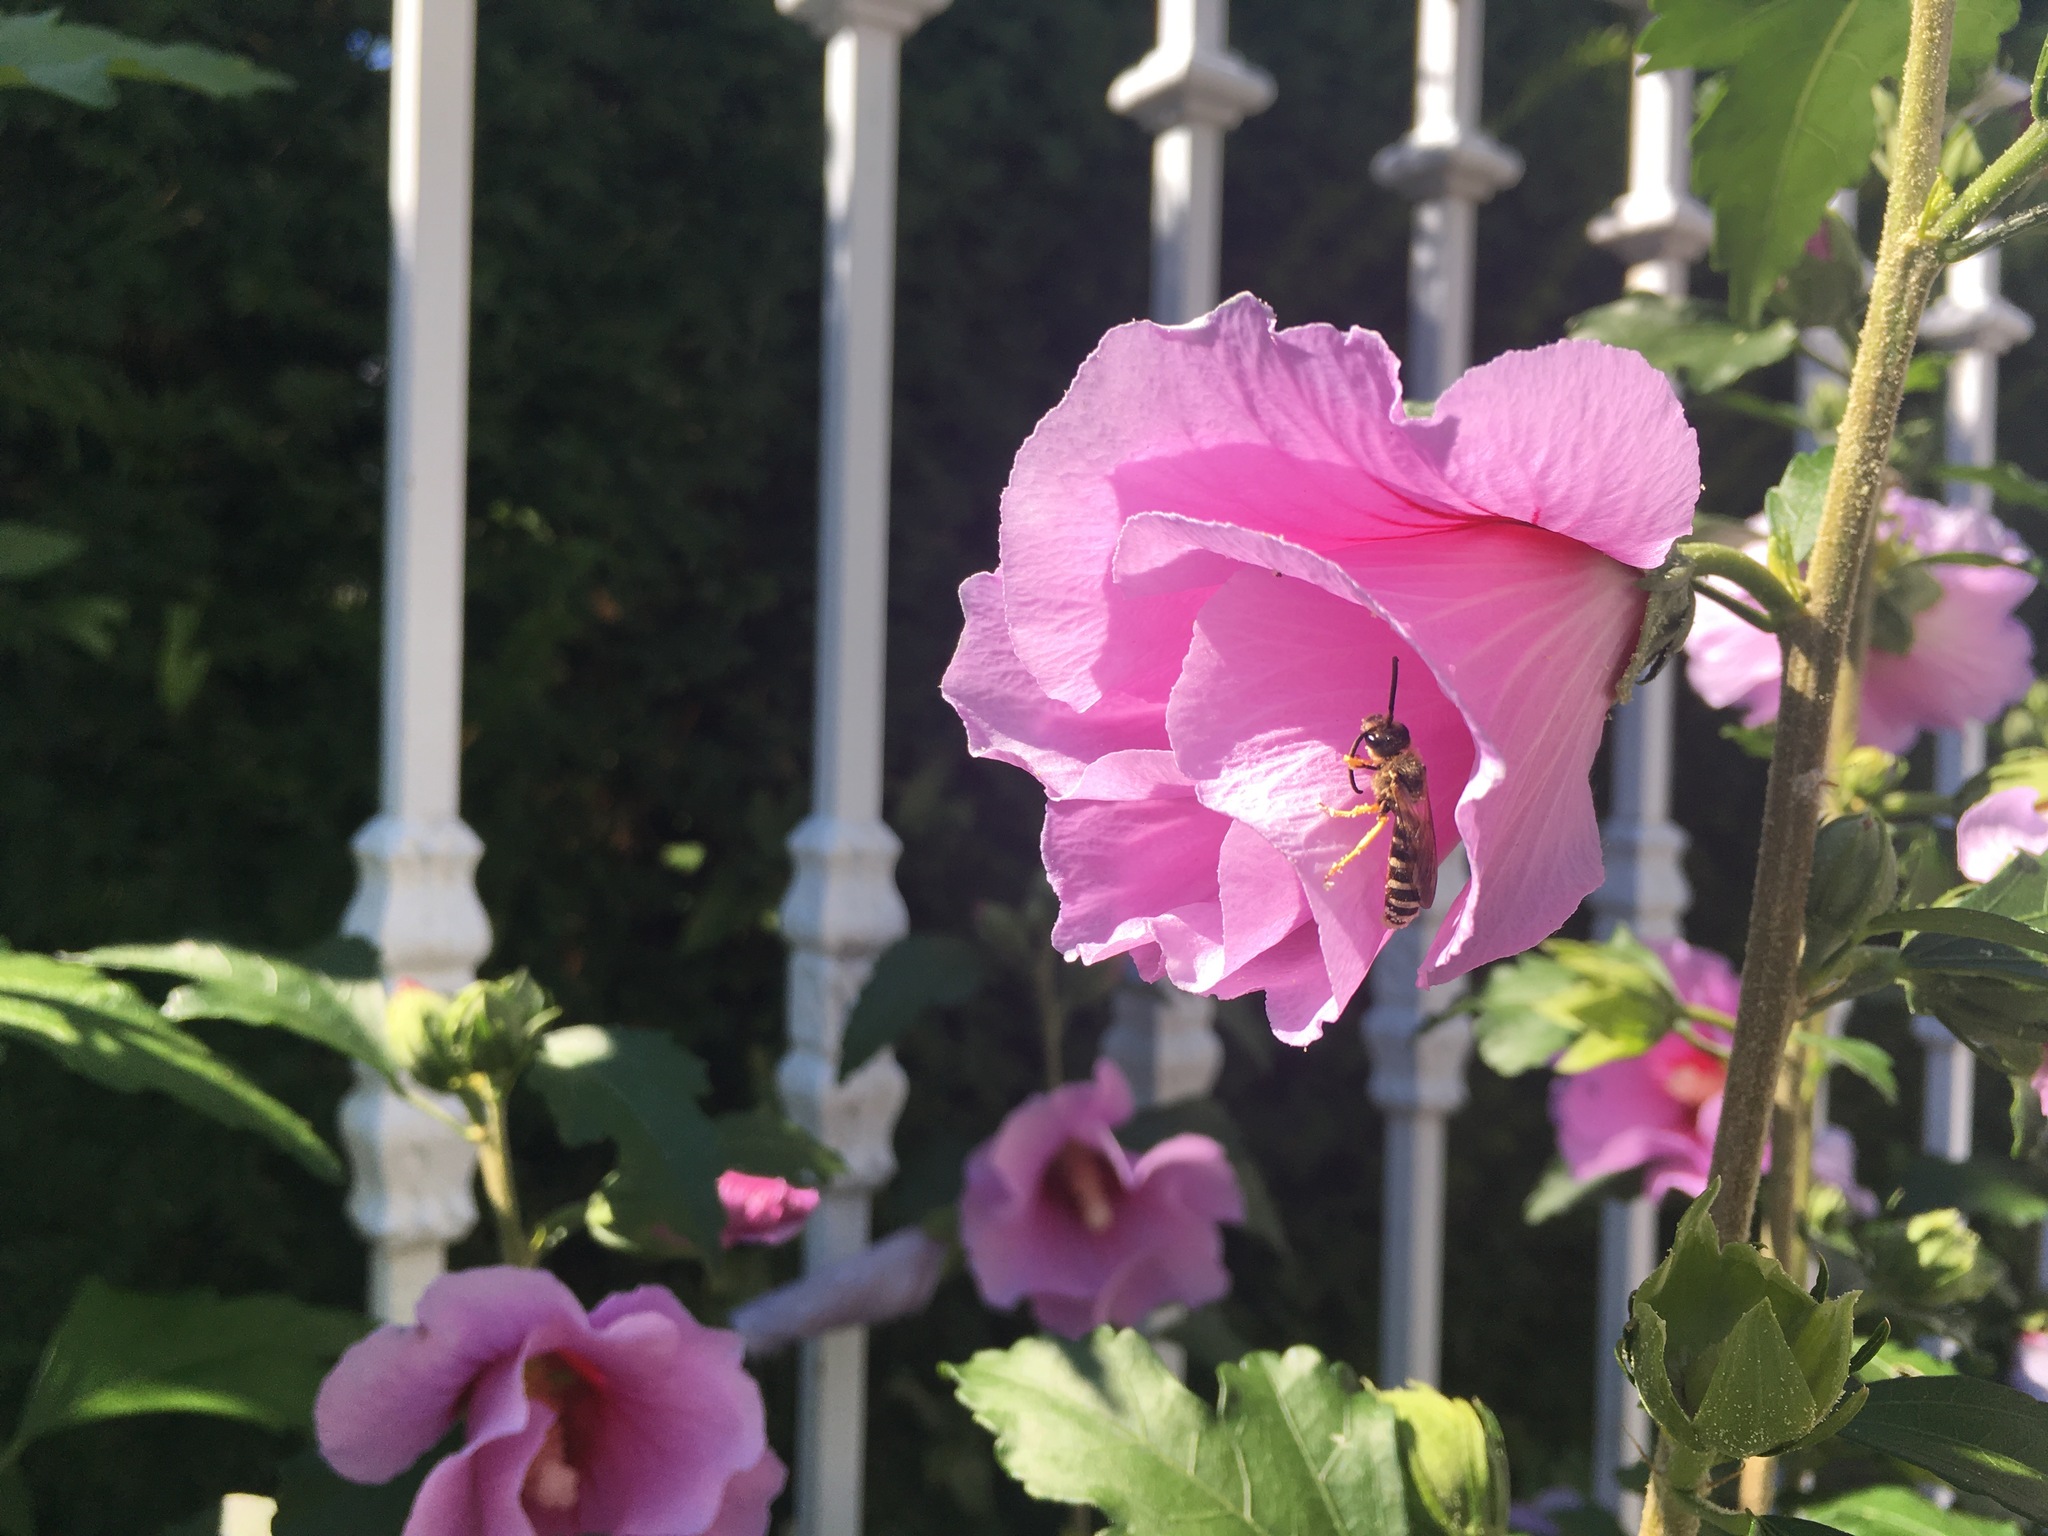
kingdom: Animalia
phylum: Arthropoda
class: Insecta
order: Hymenoptera
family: Halictidae
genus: Halictus
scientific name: Halictus scabiosae
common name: Great banded furrow bee
